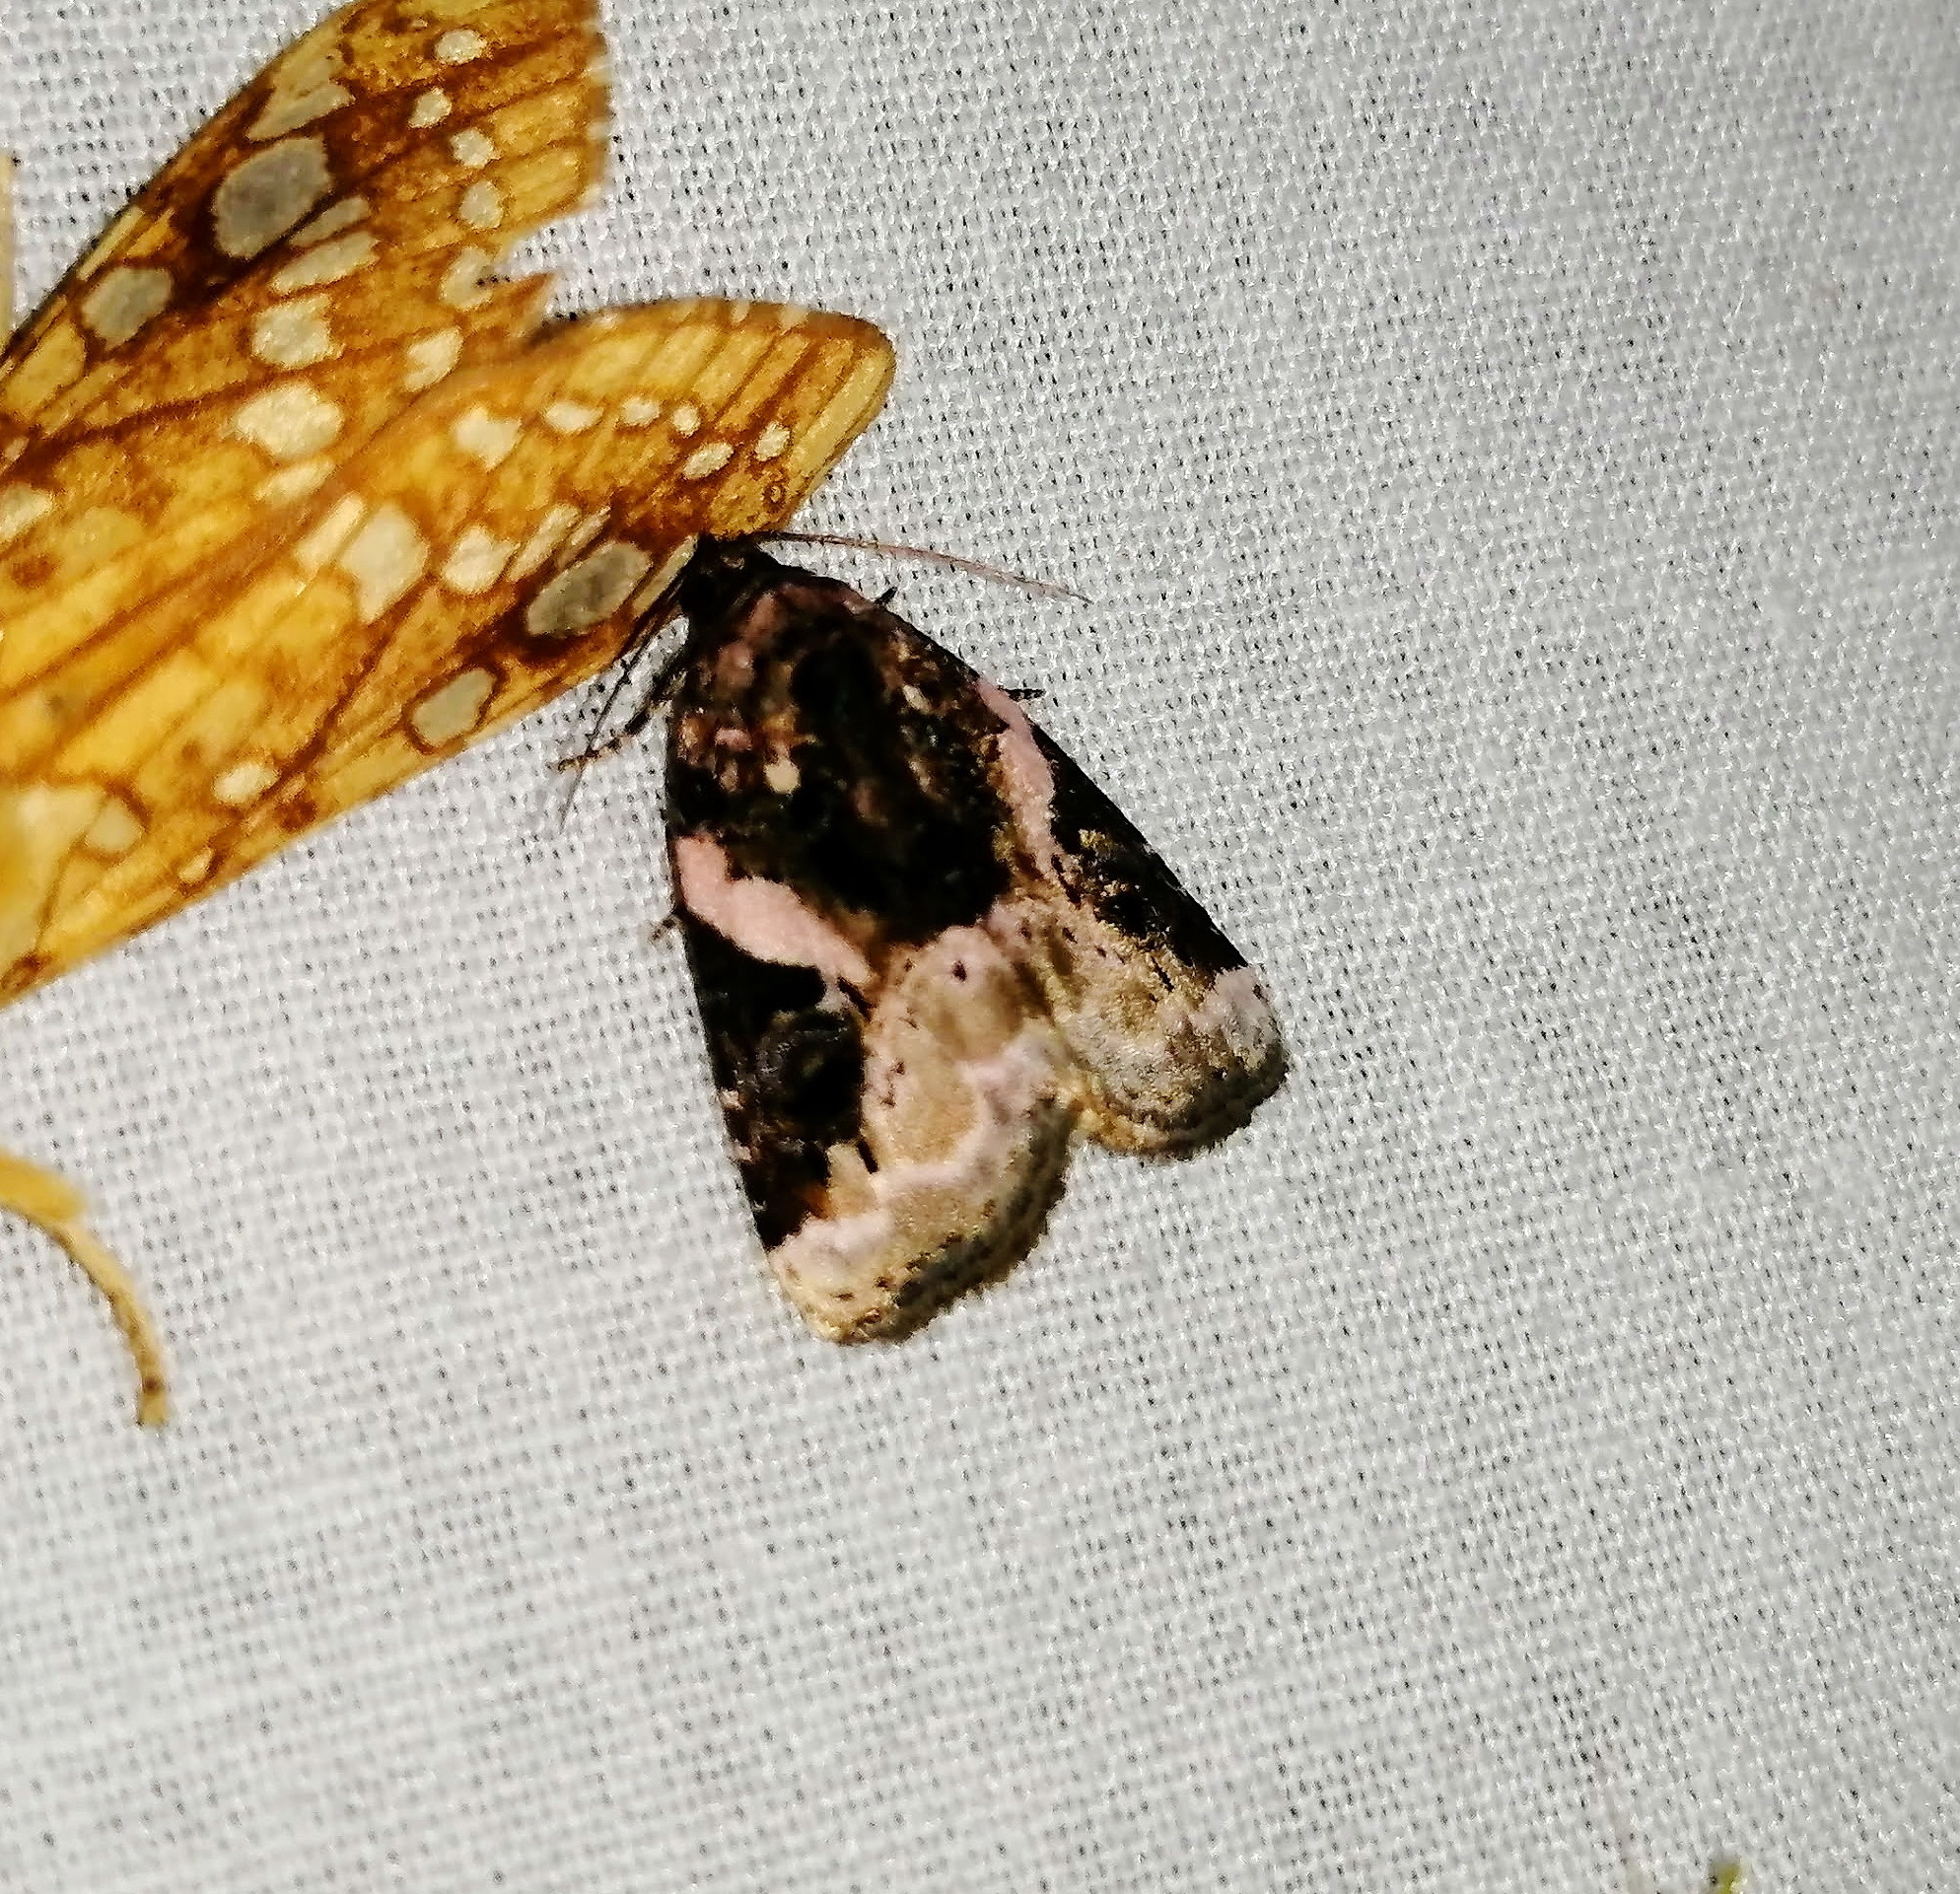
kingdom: Animalia
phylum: Arthropoda
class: Insecta
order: Lepidoptera
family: Noctuidae
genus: Pseudeustrotia
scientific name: Pseudeustrotia carneola
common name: Pink-barred lithacodia moth
